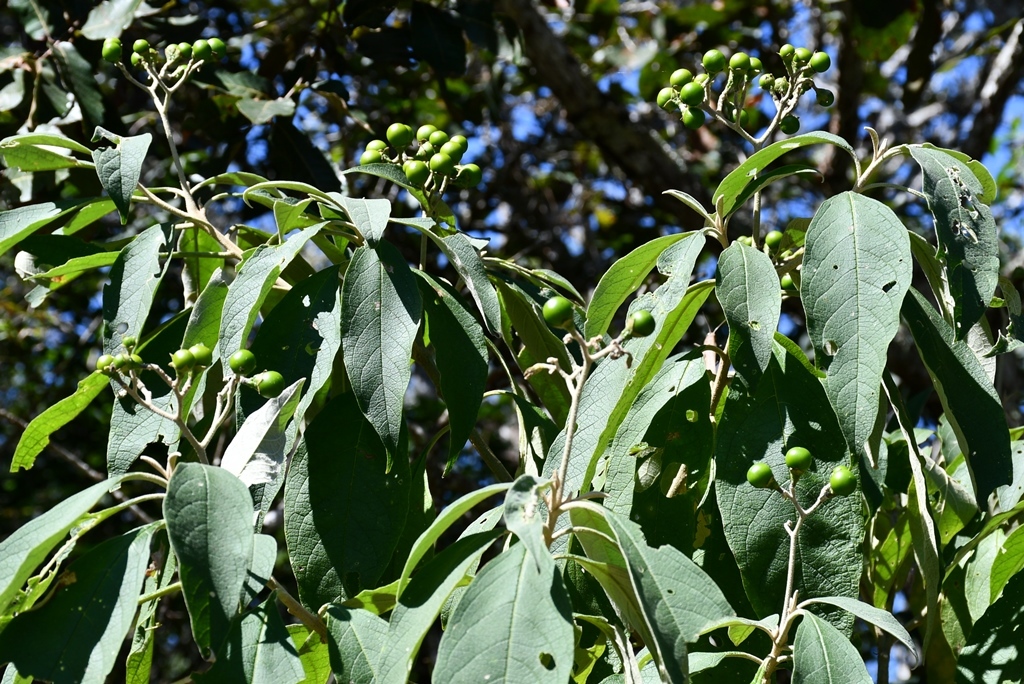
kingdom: Plantae
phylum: Tracheophyta
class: Magnoliopsida
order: Solanales
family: Solanaceae
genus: Solanum
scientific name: Solanum chiapasense
